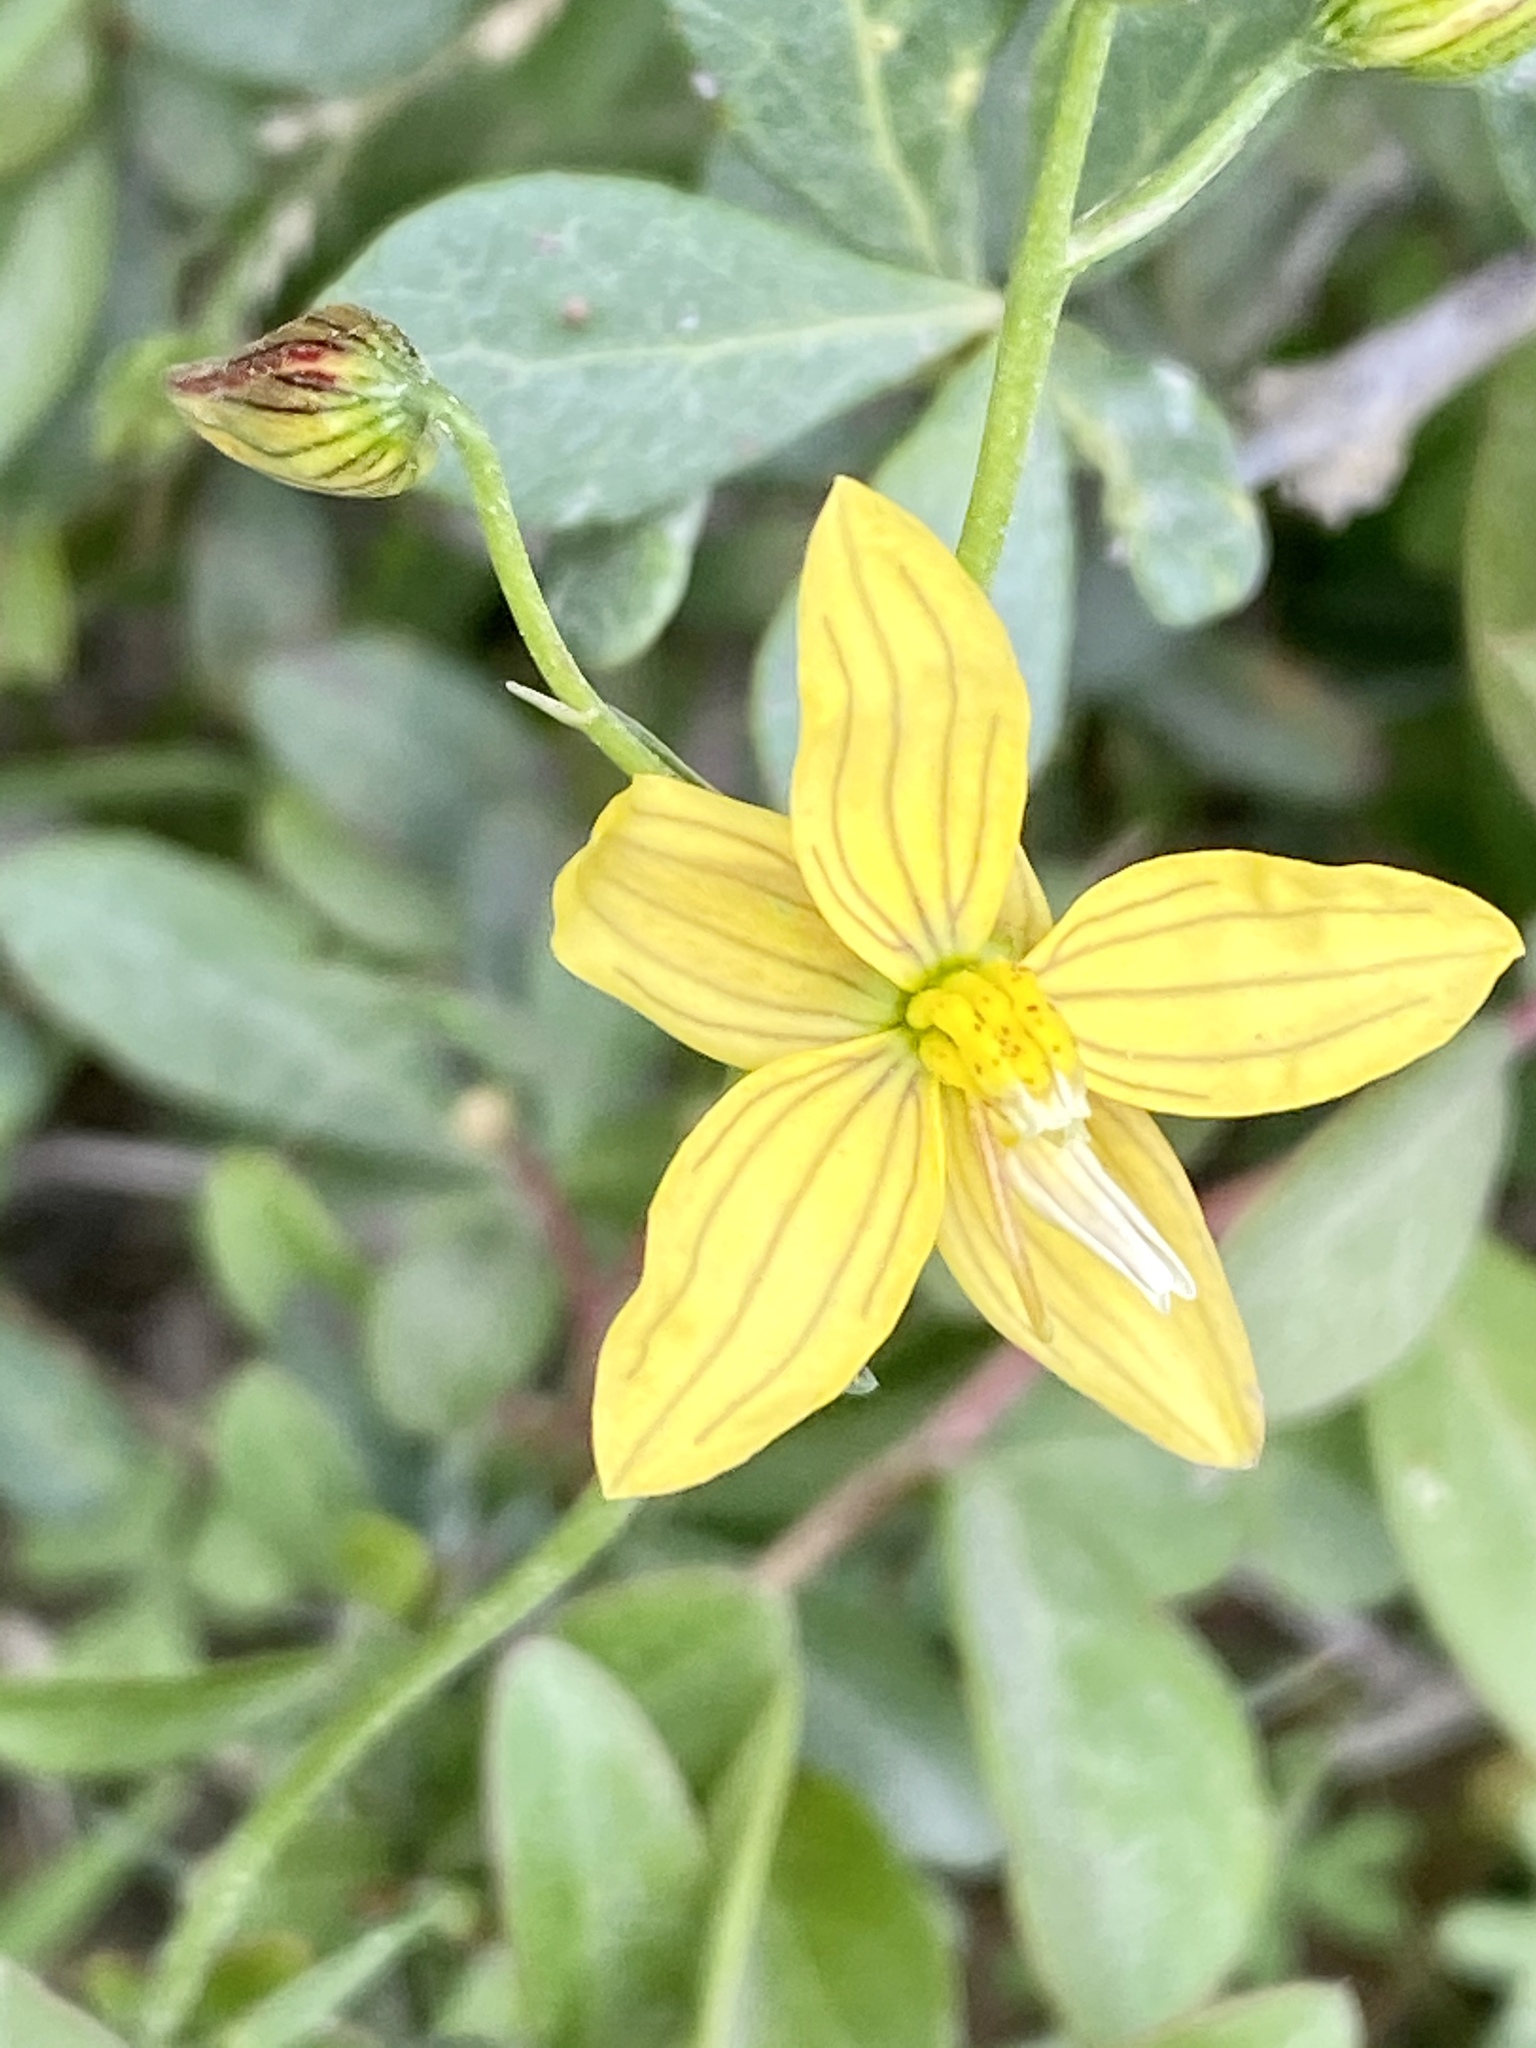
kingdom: Plantae
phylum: Tracheophyta
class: Liliopsida
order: Asparagales
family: Tecophilaeaceae
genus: Cyanella
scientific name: Cyanella lutea
